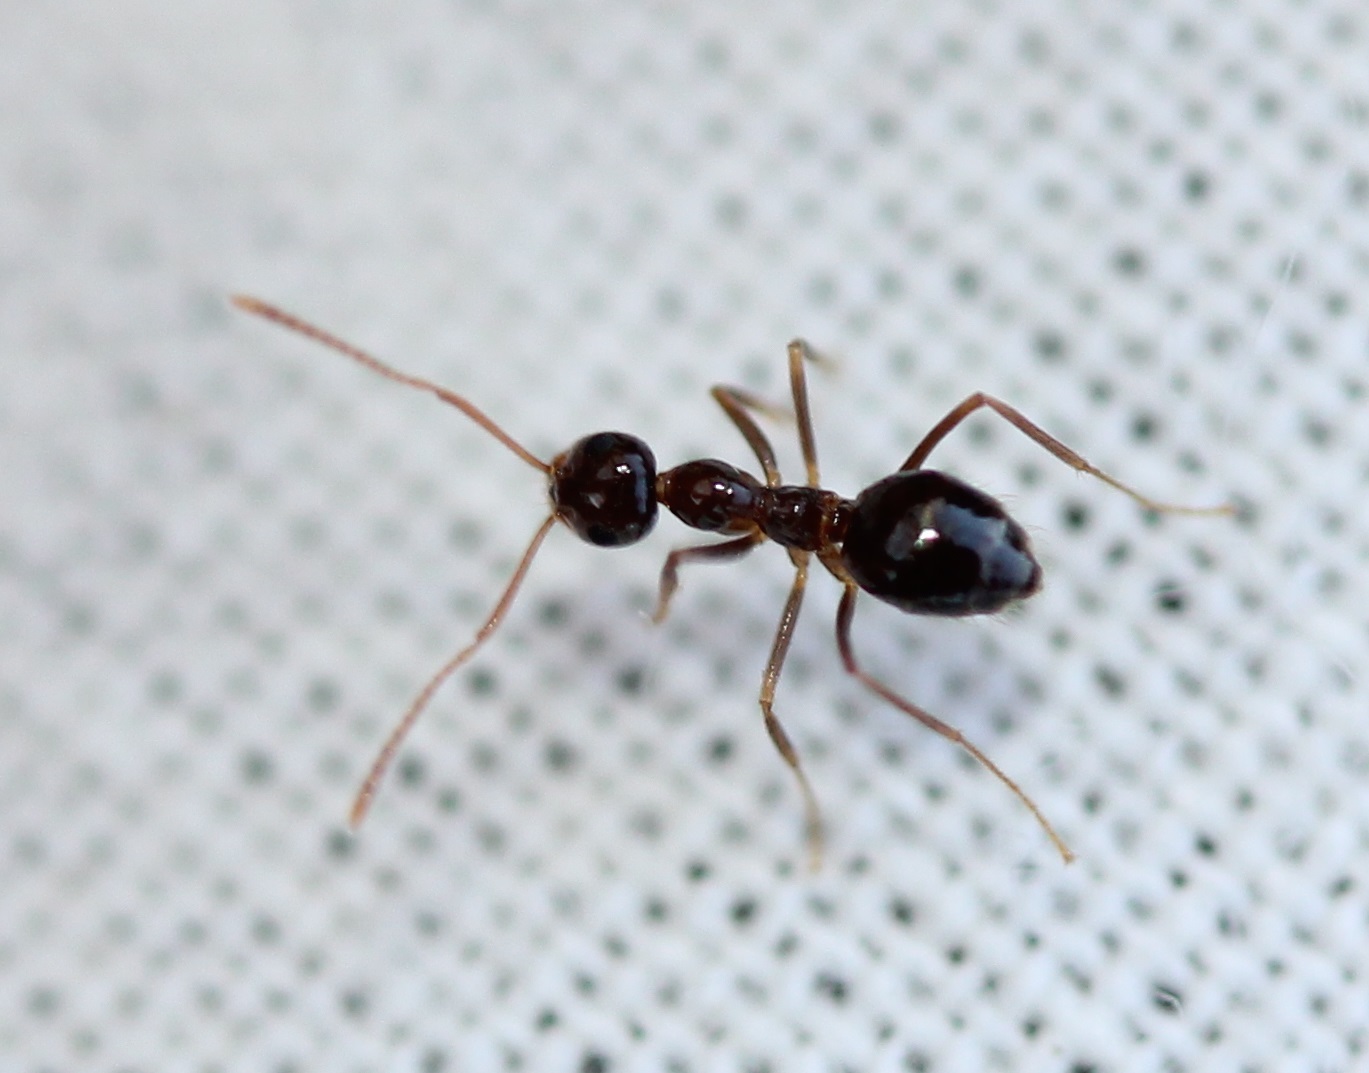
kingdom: Animalia
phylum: Arthropoda
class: Insecta
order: Hymenoptera
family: Formicidae
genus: Prenolepis
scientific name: Prenolepis imparis
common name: Small honey ant
